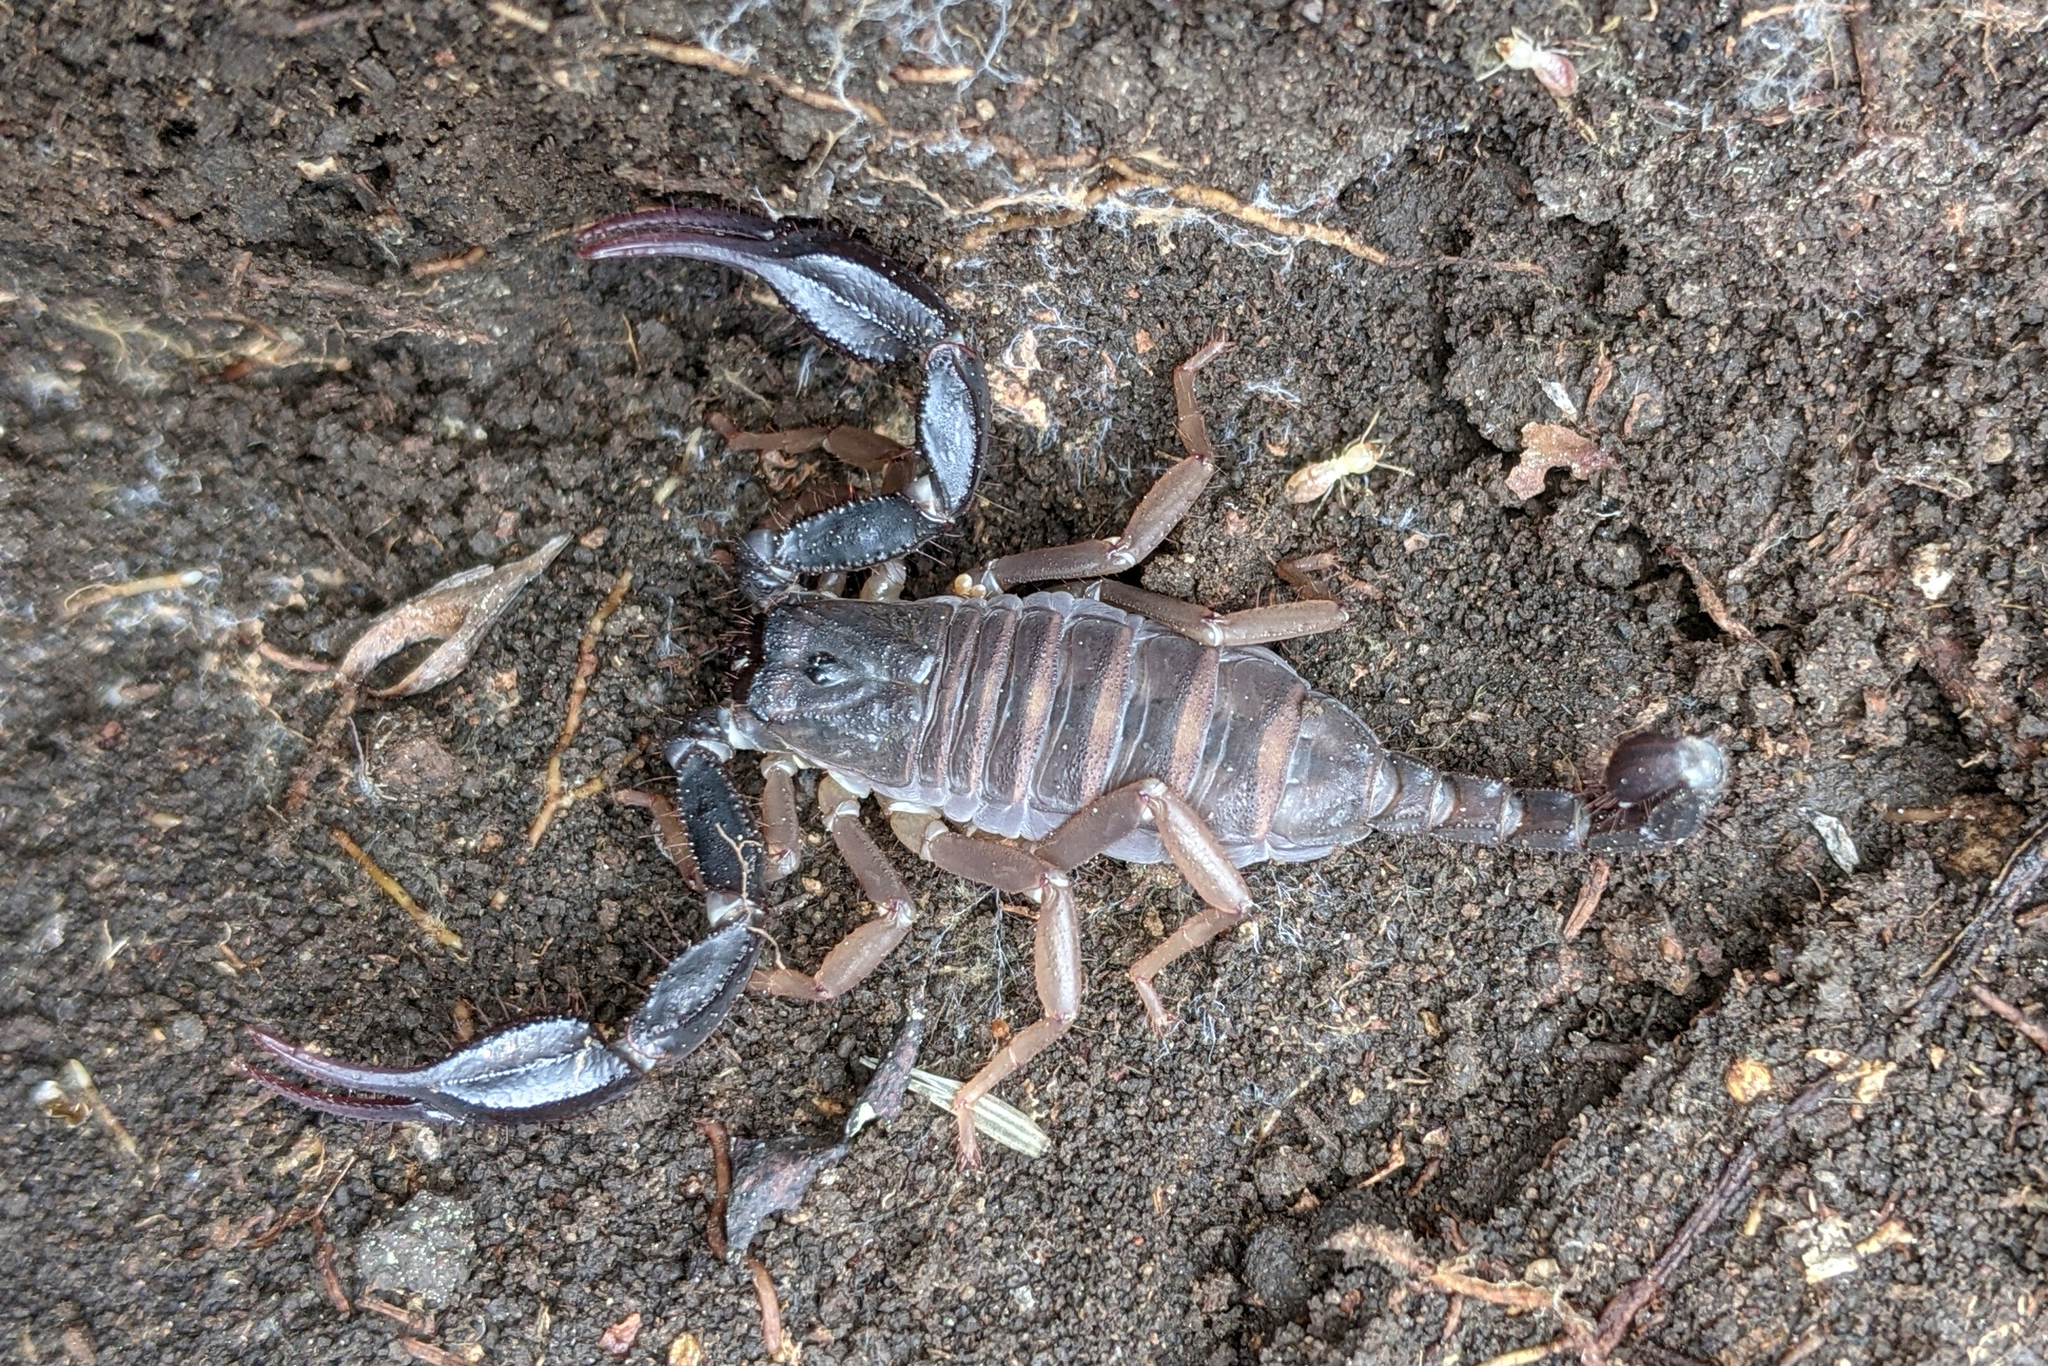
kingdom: Animalia
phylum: Arthropoda
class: Arachnida
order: Scorpiones
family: Iuridae
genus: Anatoliurus
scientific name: Anatoliurus kraepelini
